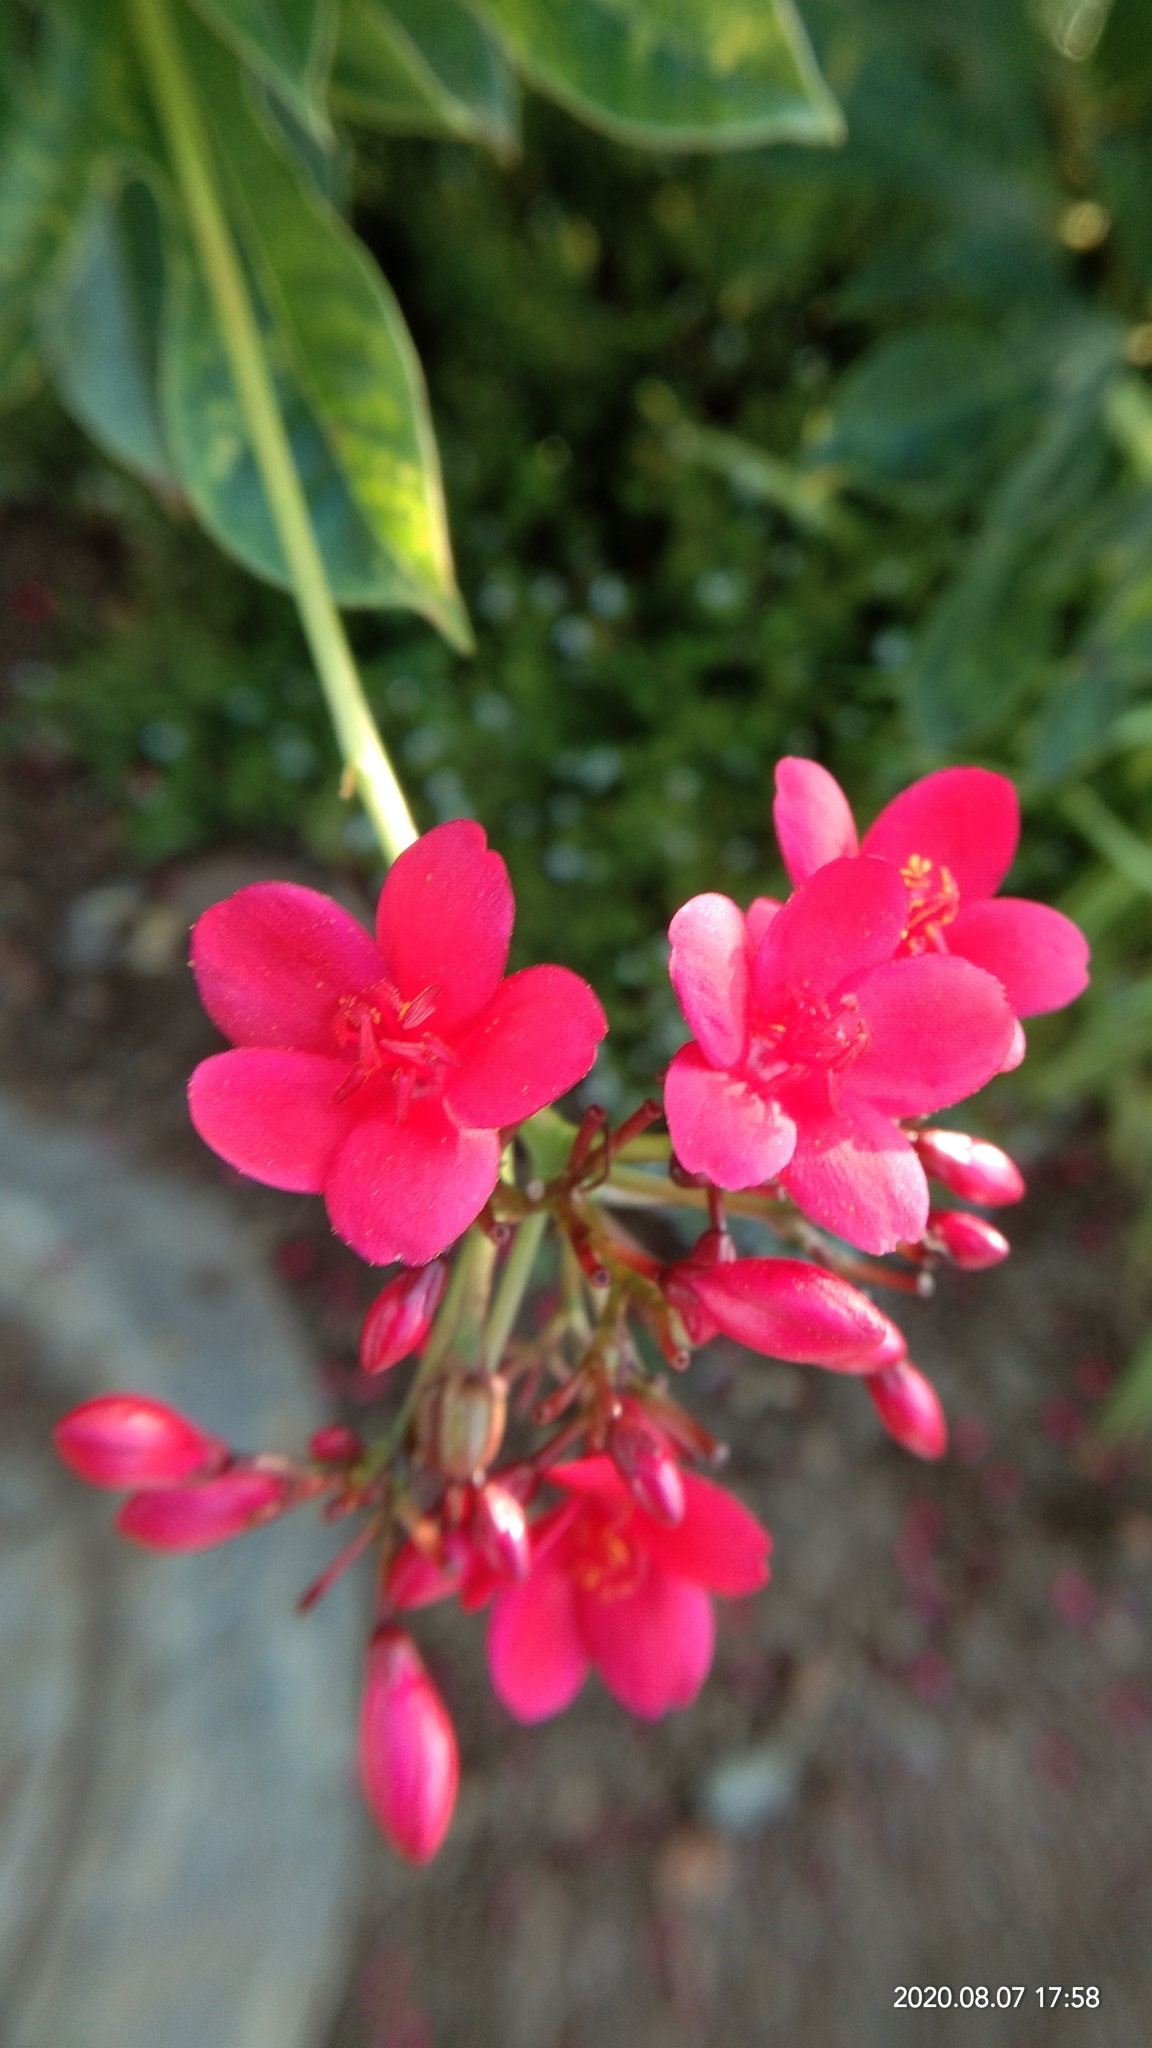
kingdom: Plantae
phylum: Tracheophyta
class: Magnoliopsida
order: Malpighiales
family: Euphorbiaceae
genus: Jatropha
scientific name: Jatropha integerrima
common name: Peregrina
